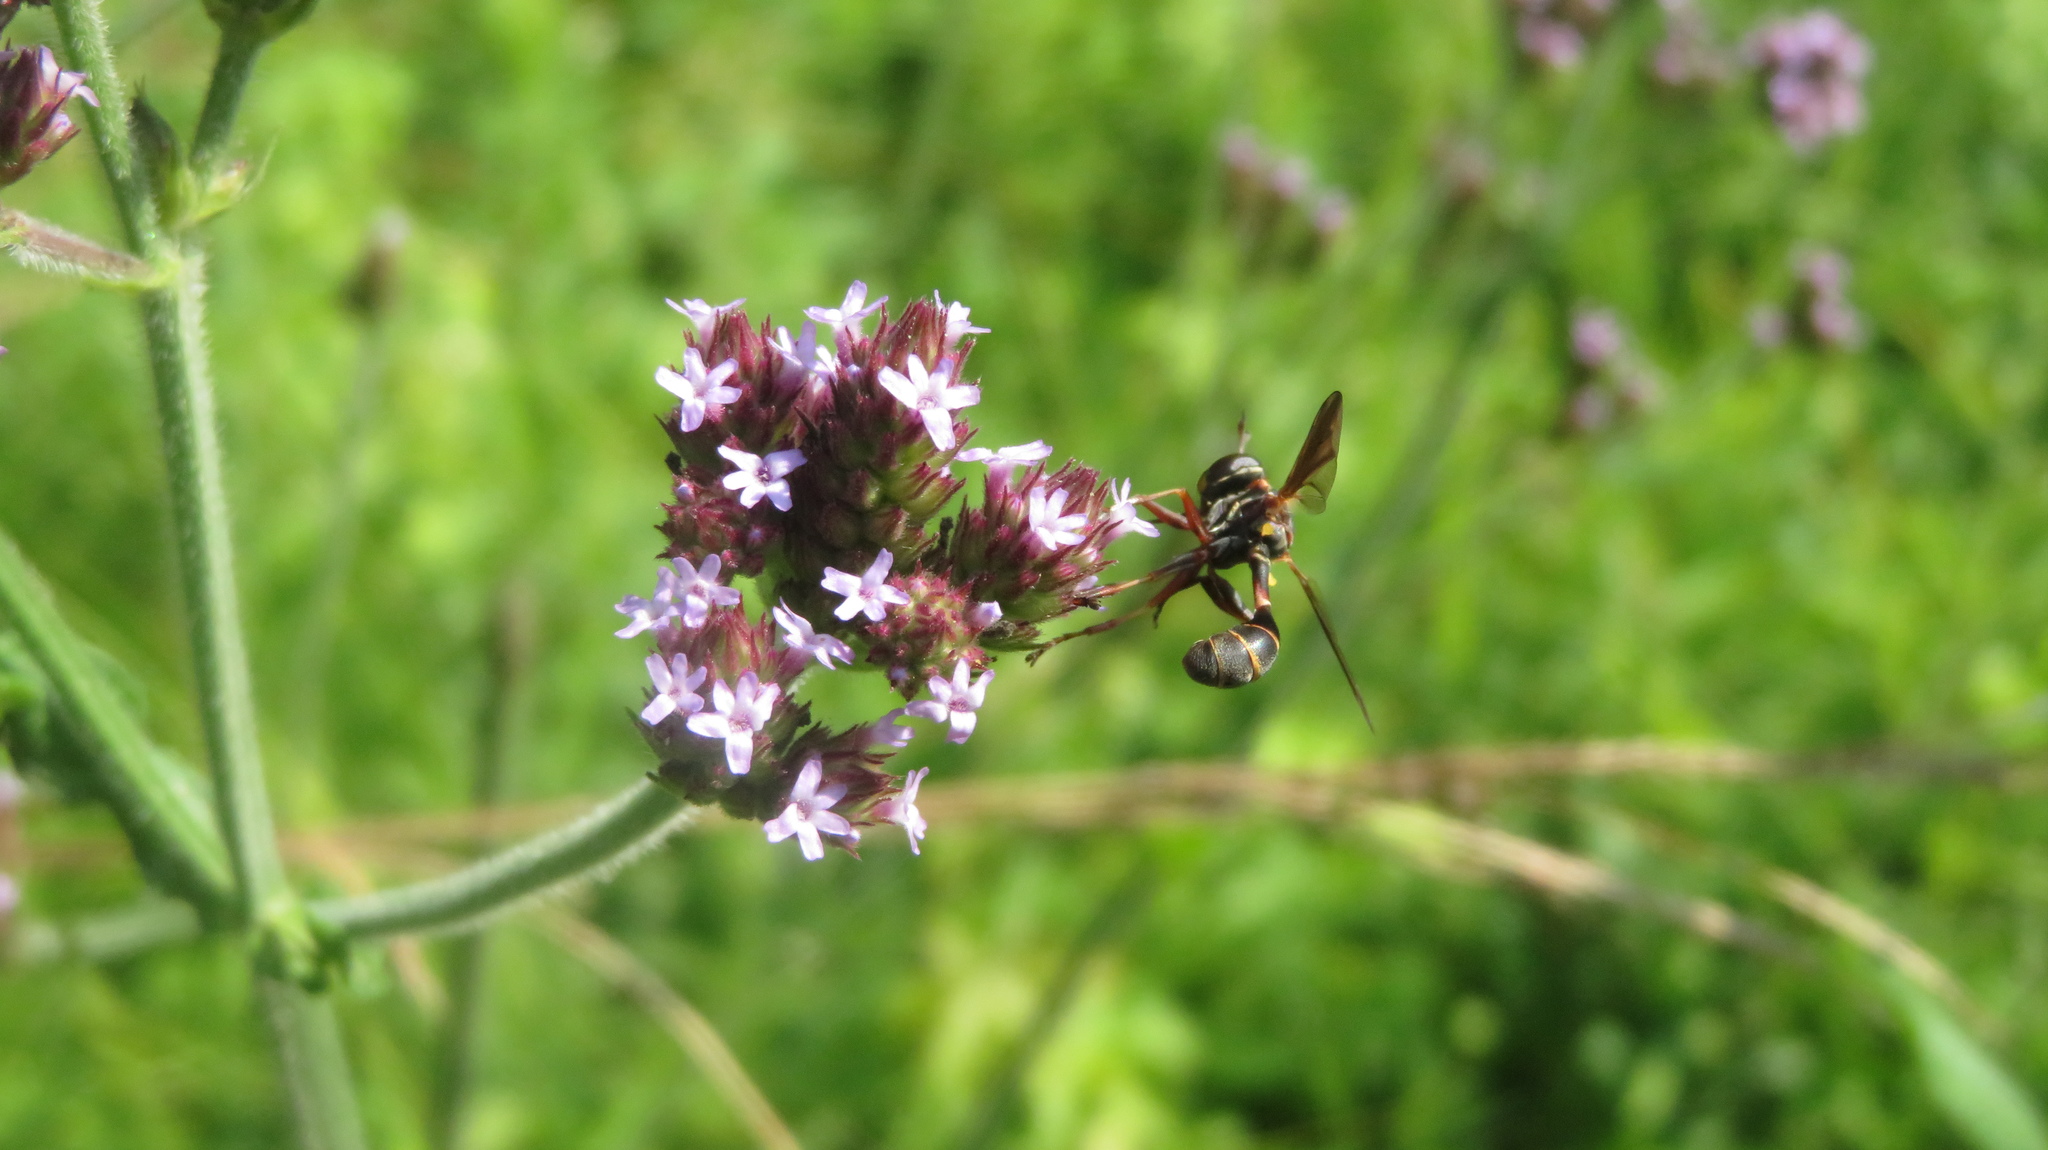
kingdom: Animalia
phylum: Arthropoda
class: Insecta
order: Diptera
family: Conopidae
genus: Physocephala
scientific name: Physocephala sagittaria
